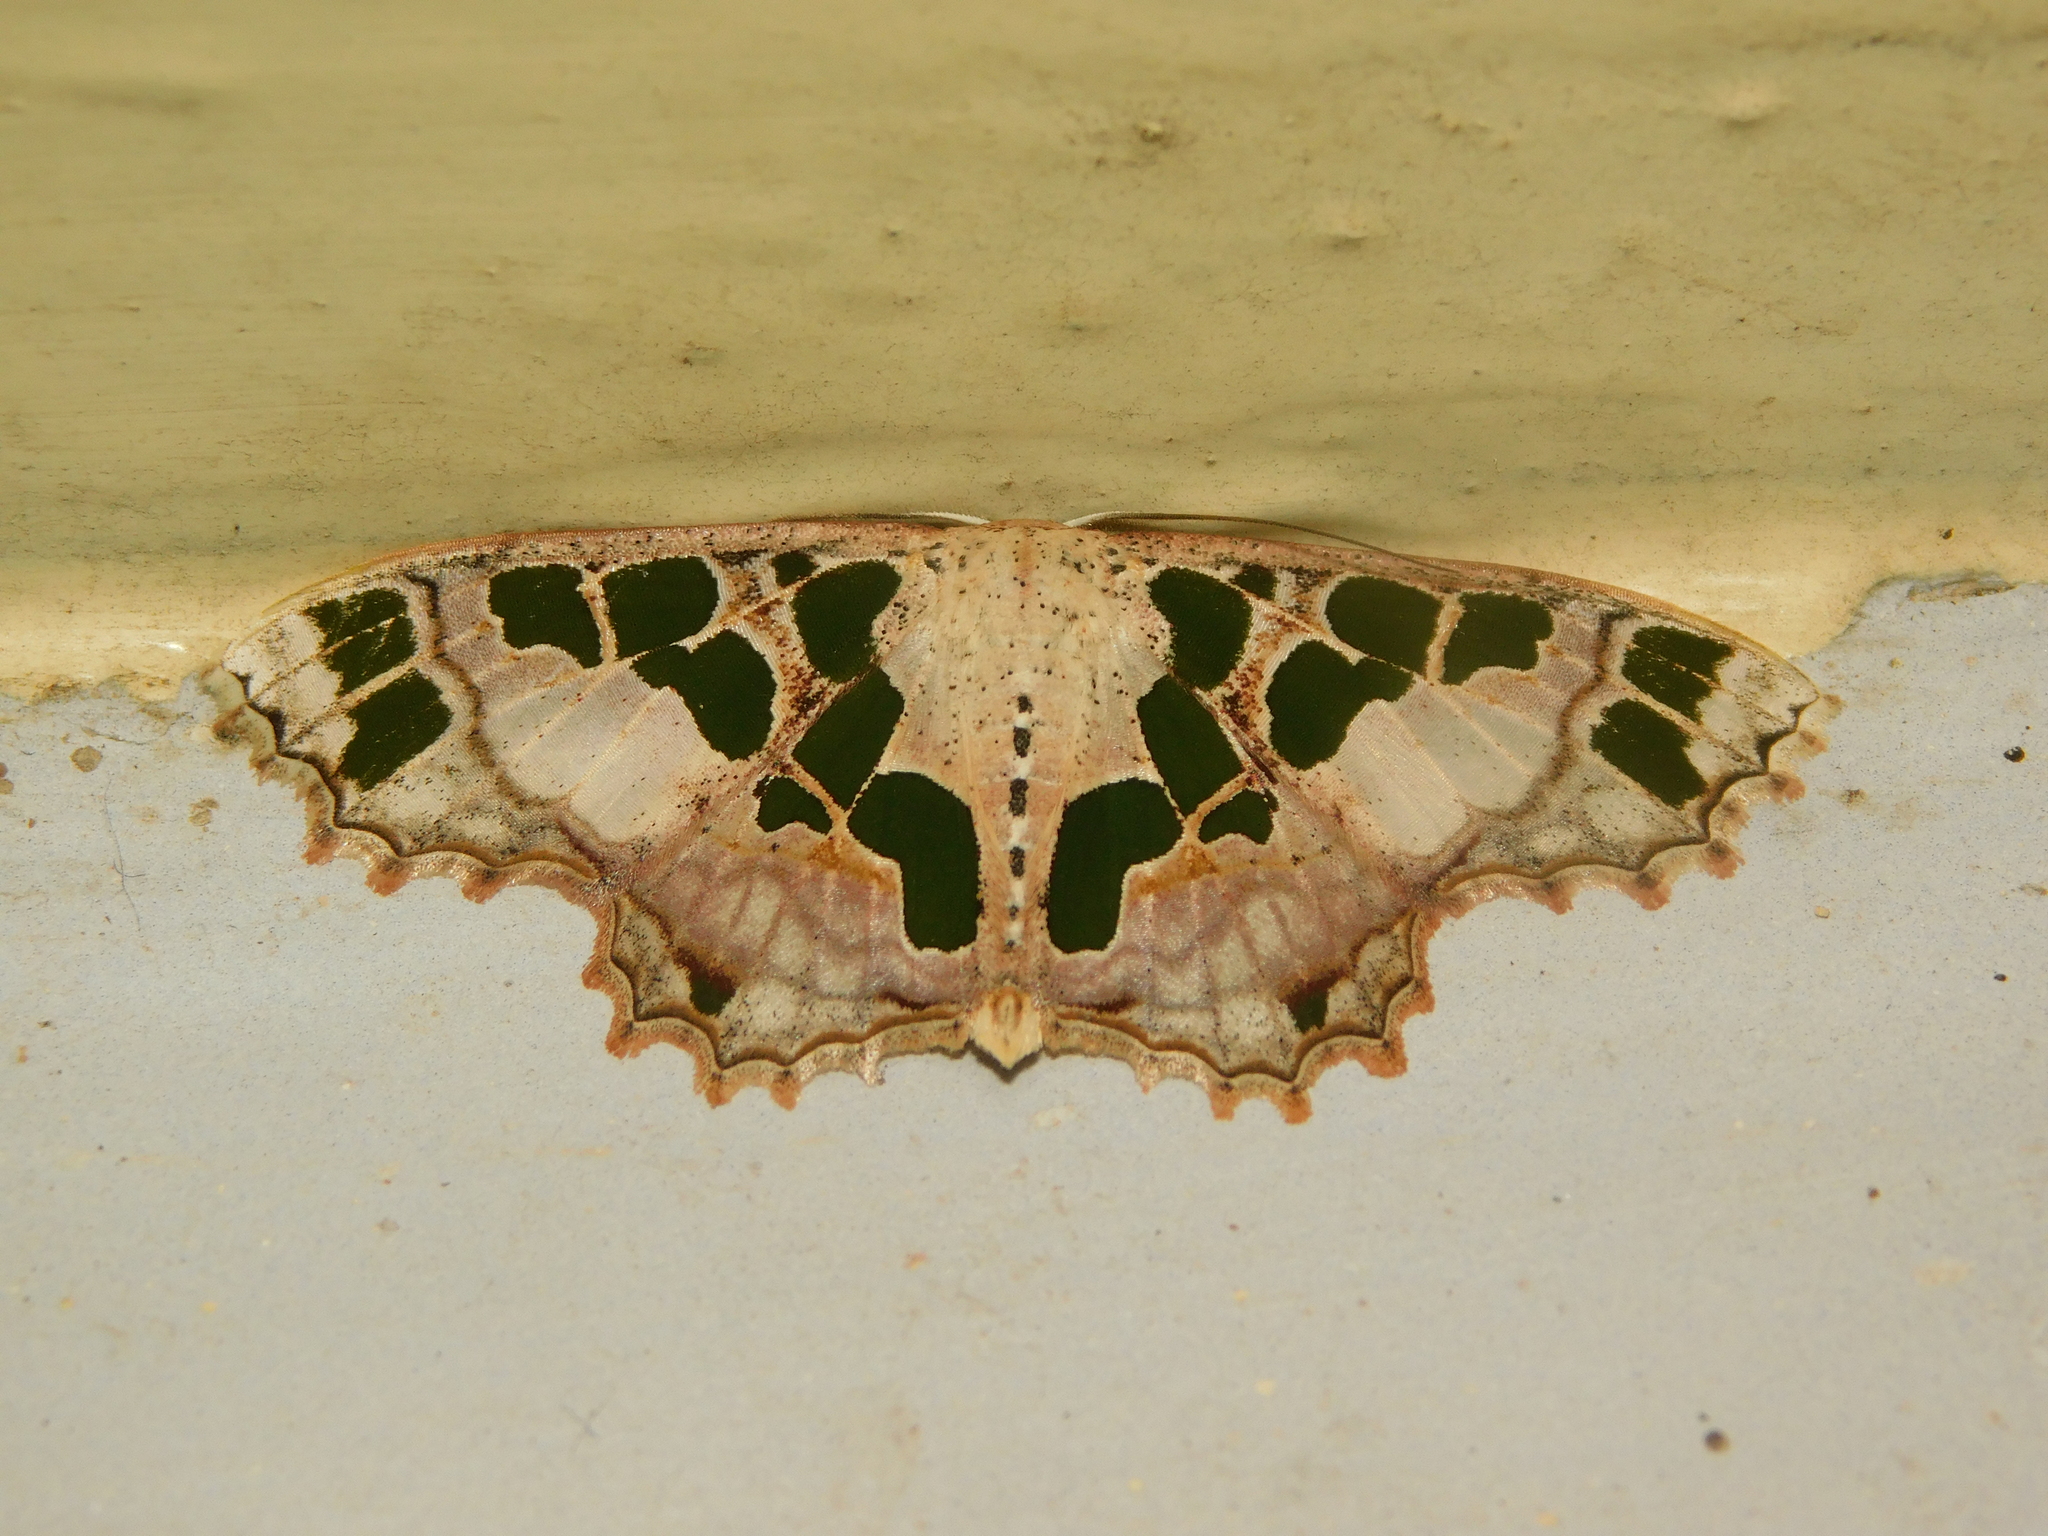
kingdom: Animalia
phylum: Arthropoda
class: Insecta
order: Lepidoptera
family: Geometridae
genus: Scopula
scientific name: Scopula divisaria
